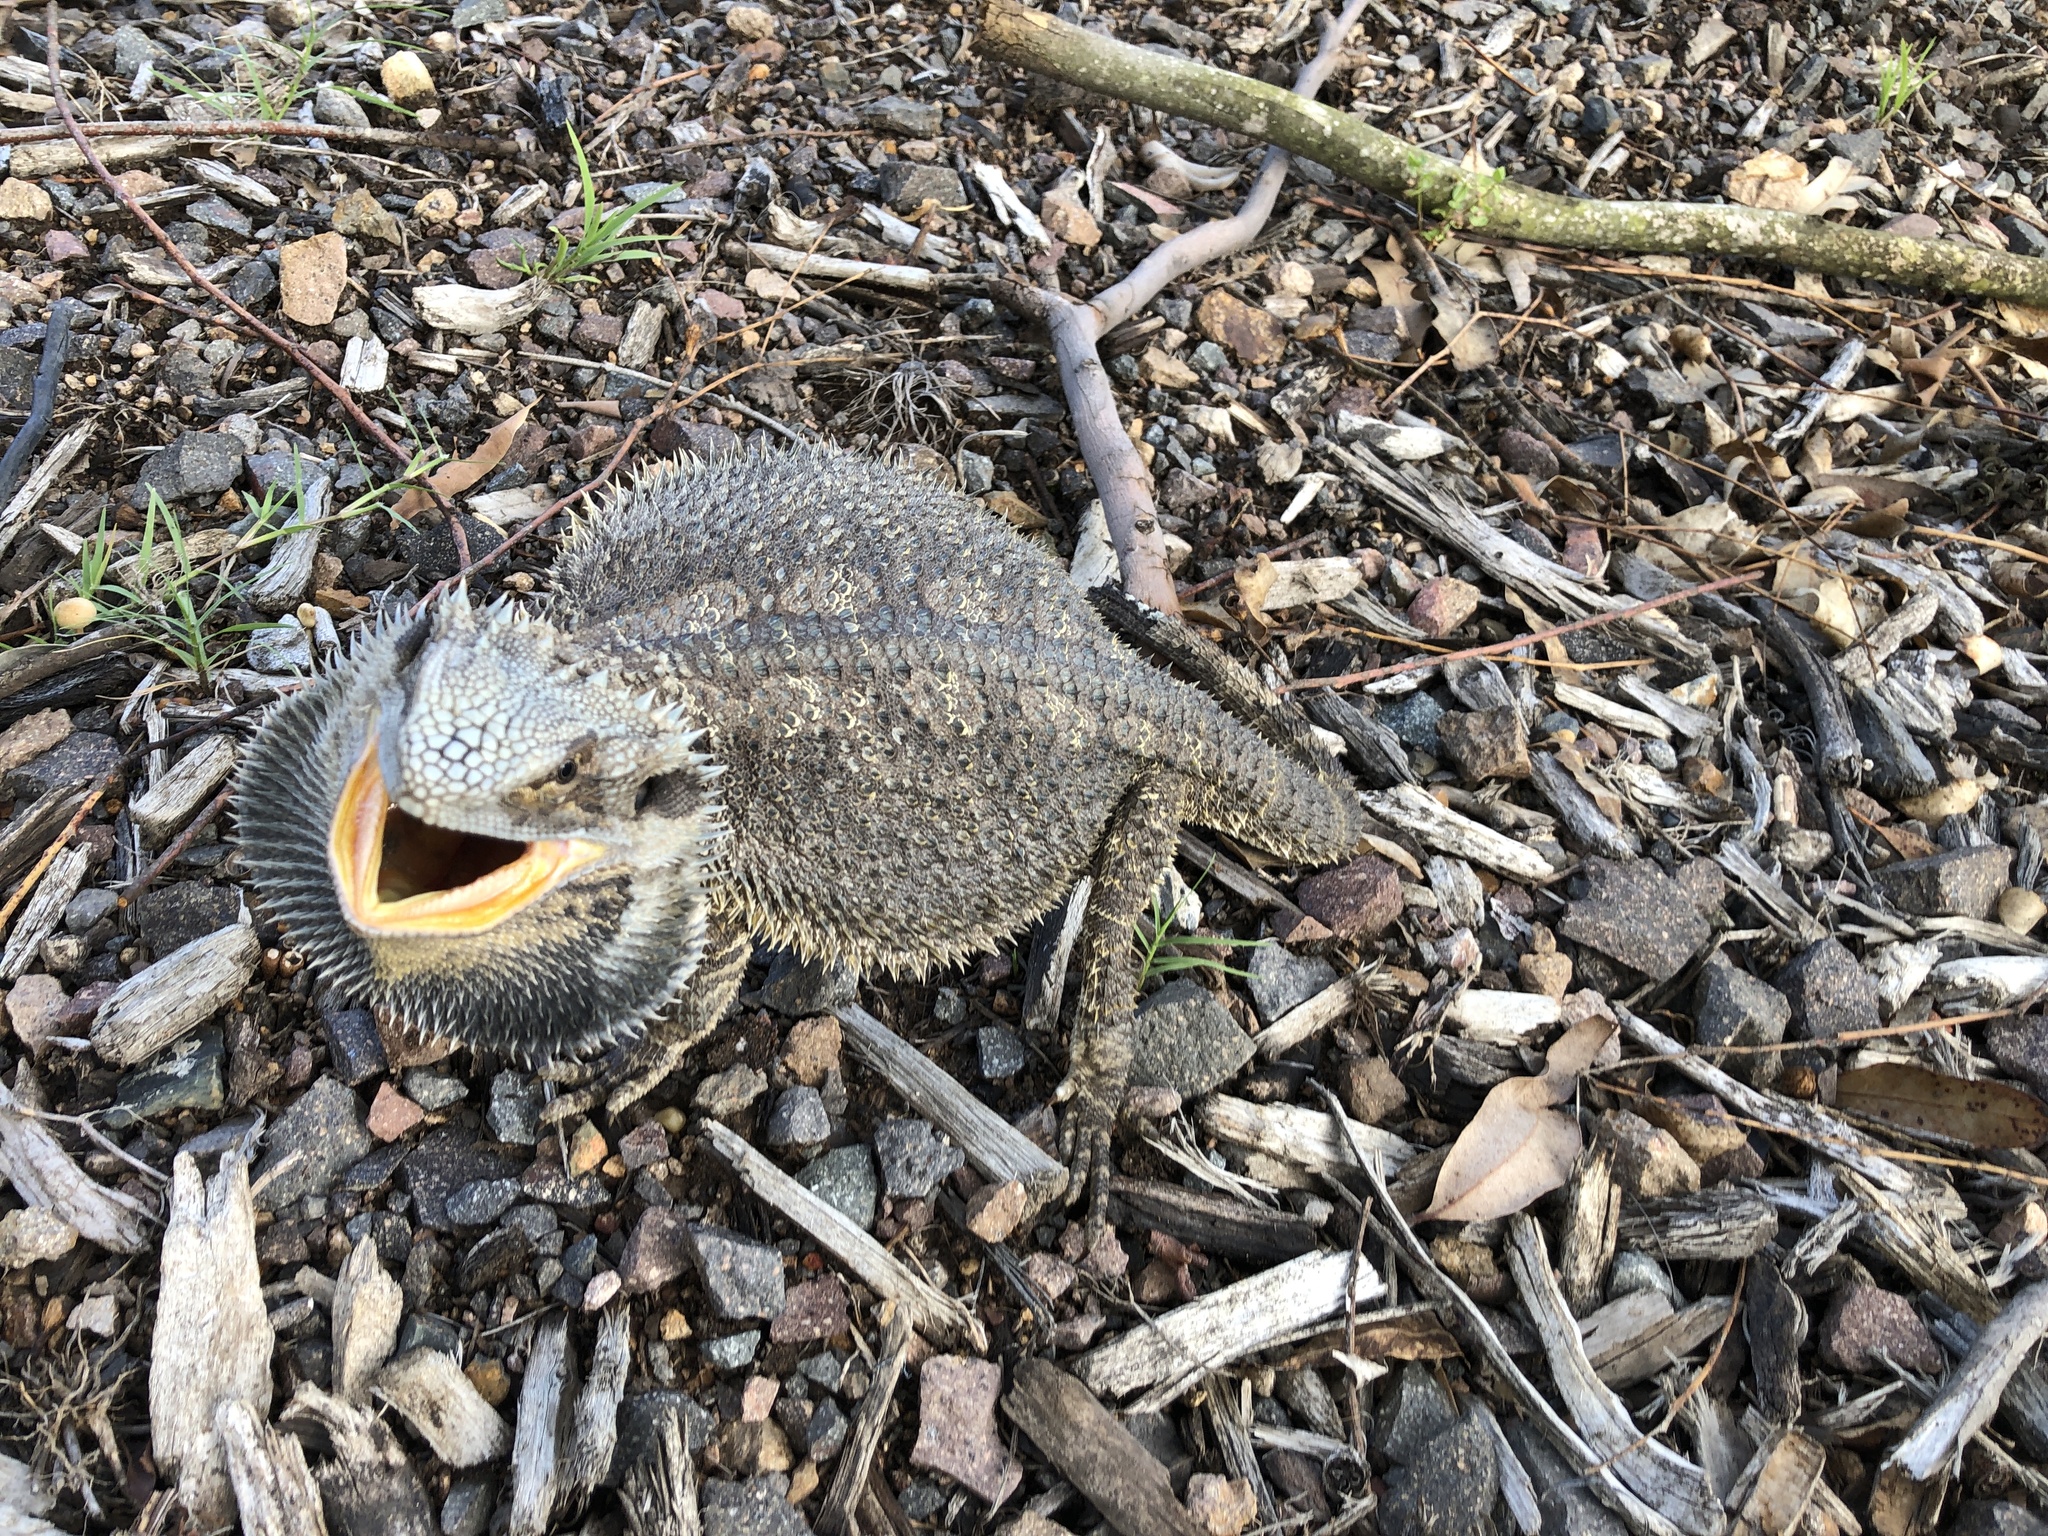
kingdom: Animalia
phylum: Chordata
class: Squamata
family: Agamidae
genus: Pogona
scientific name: Pogona barbata
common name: Bearded dragon
